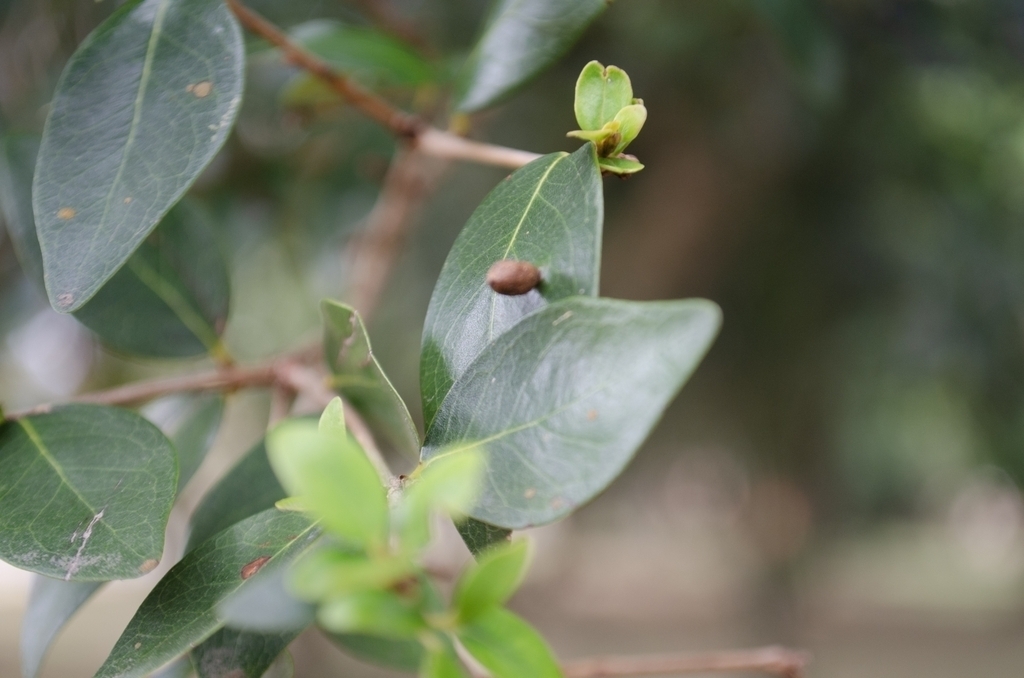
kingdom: Plantae
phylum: Tracheophyta
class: Magnoliopsida
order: Myrtales
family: Myrtaceae
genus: Eugenia
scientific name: Eugenia uniflora
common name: Surinam cherry
